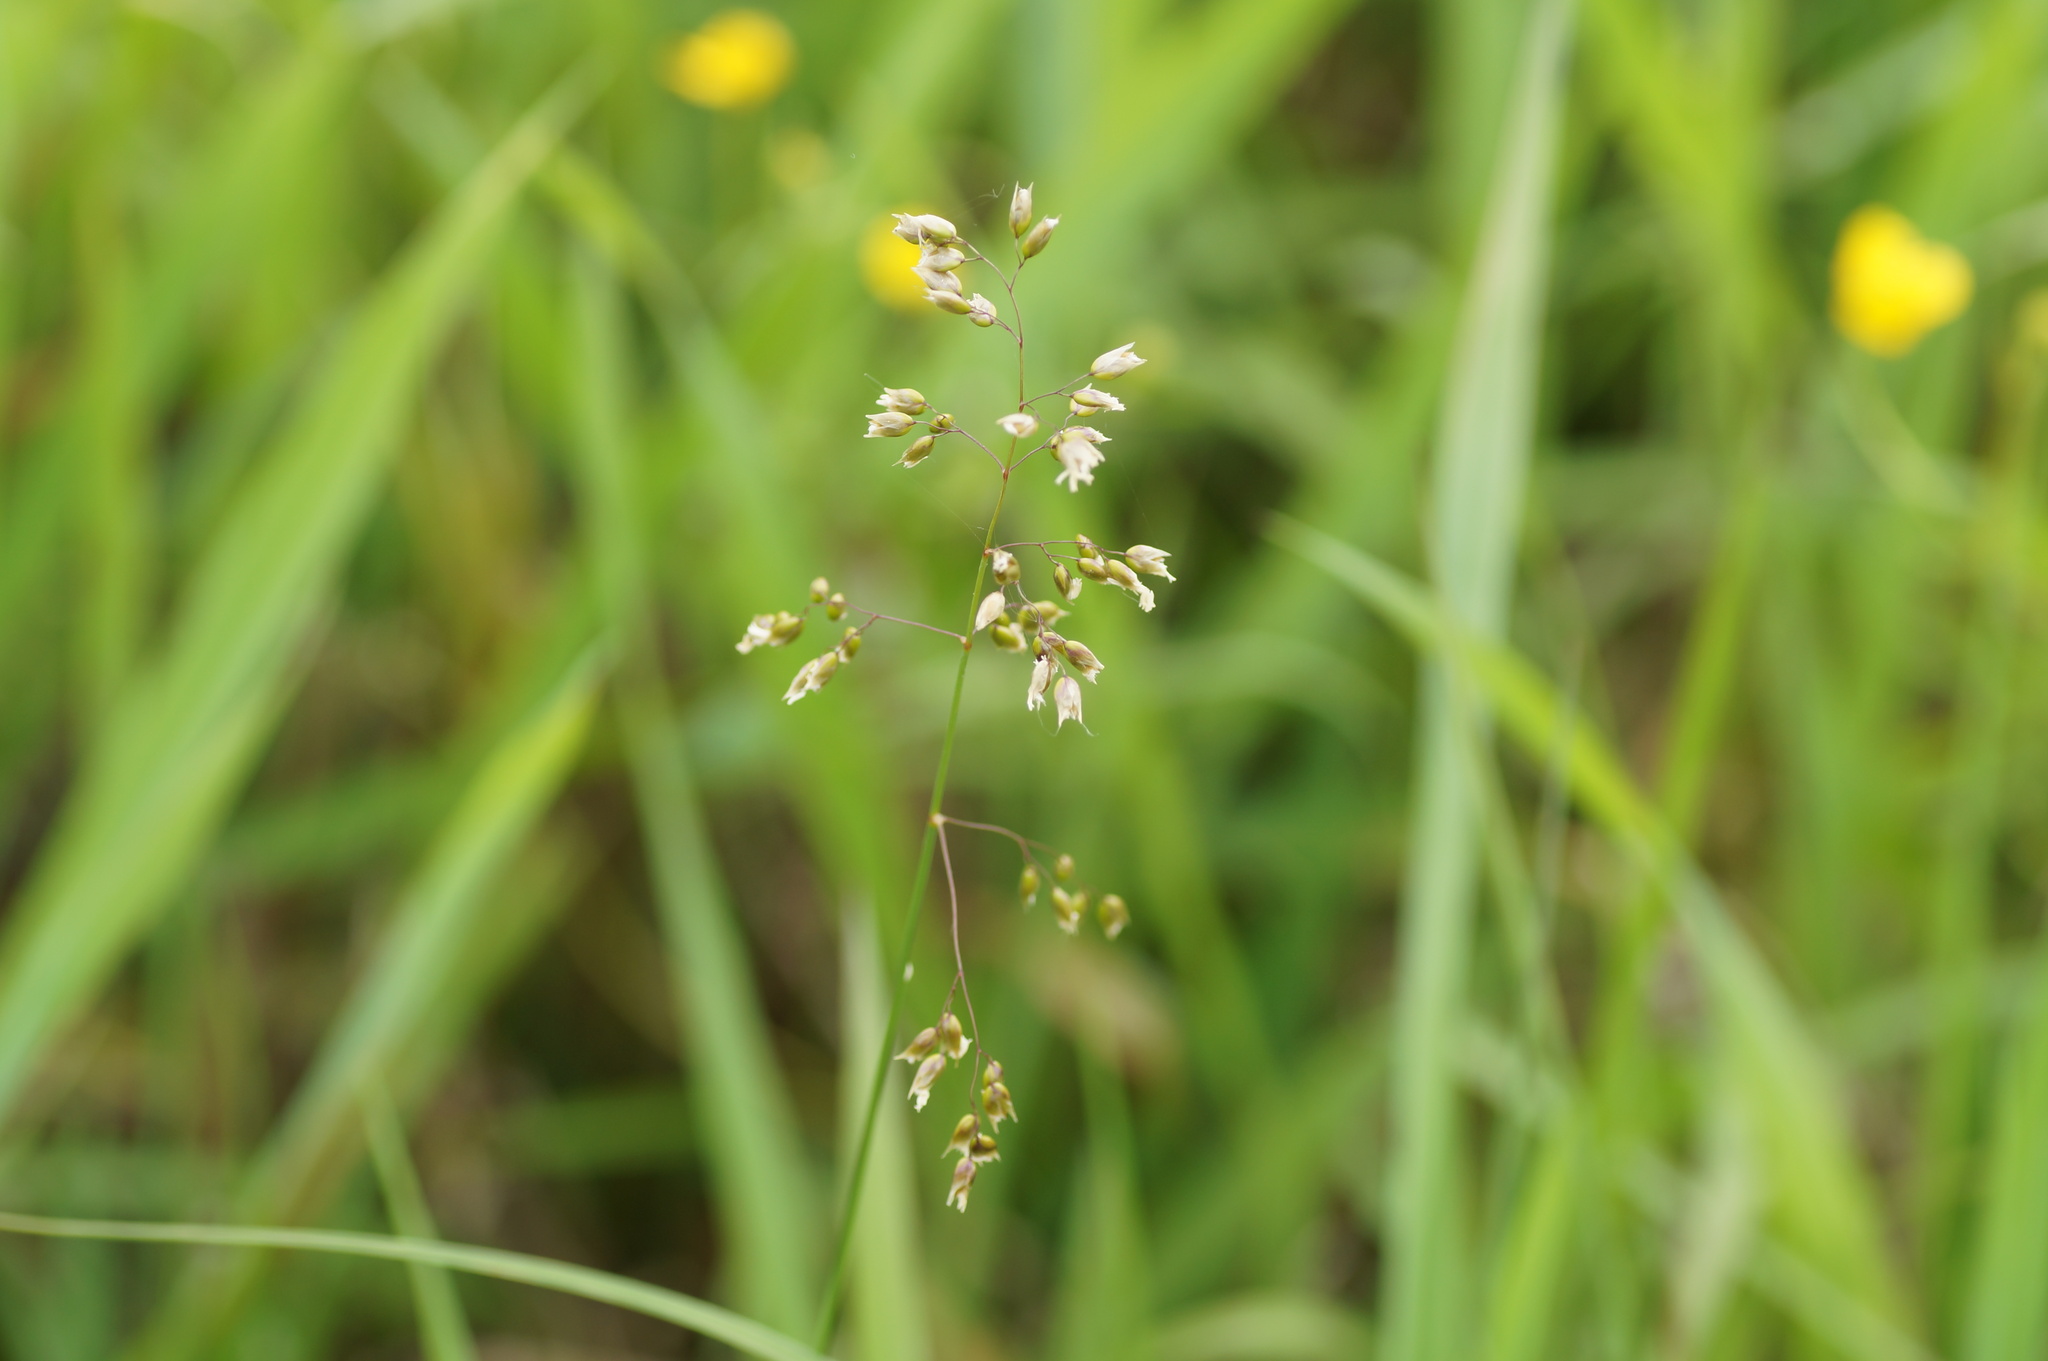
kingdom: Plantae
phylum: Tracheophyta
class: Liliopsida
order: Poales
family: Poaceae
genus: Anthoxanthum
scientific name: Anthoxanthum nitens
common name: Holy grass
